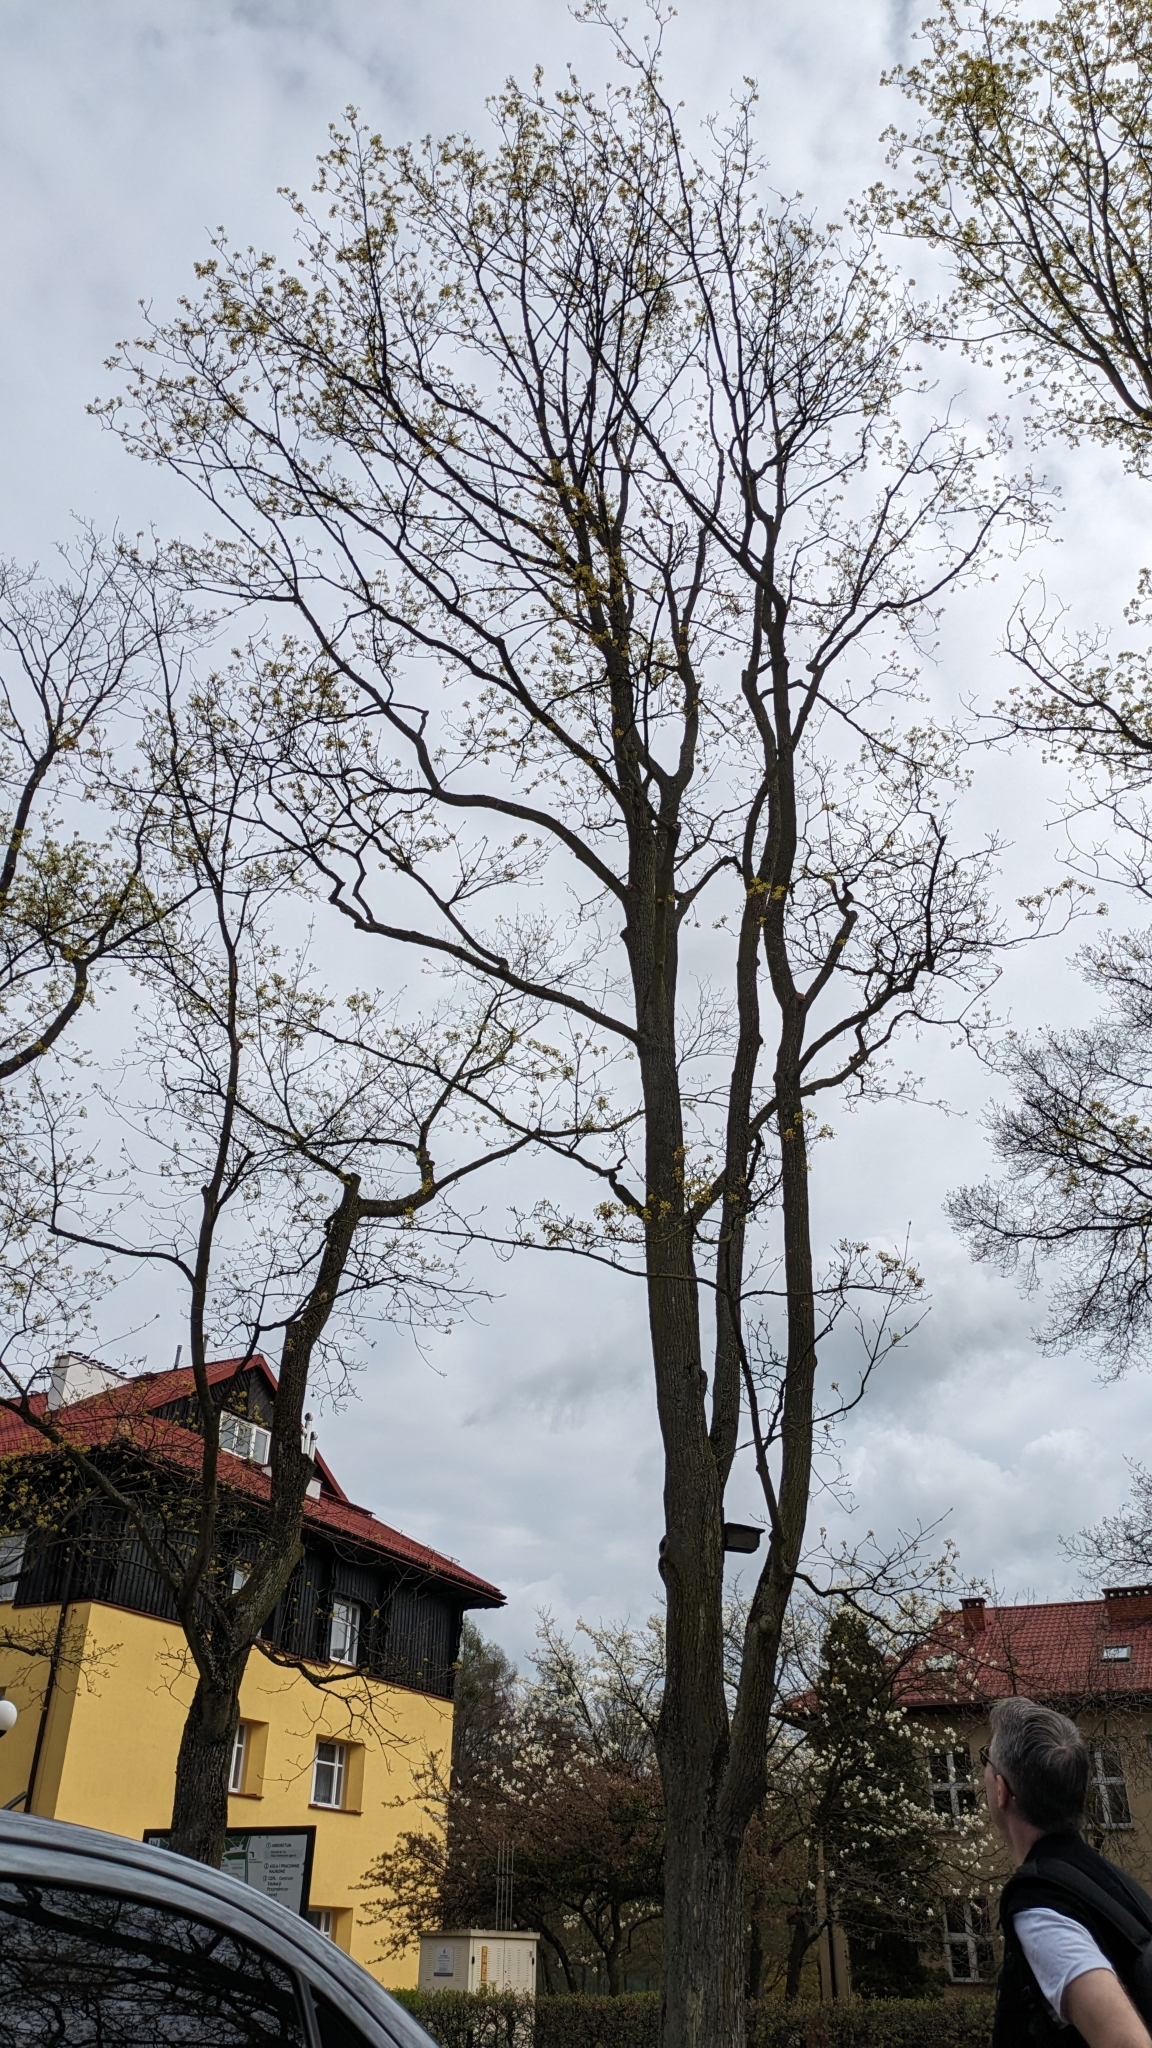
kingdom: Animalia
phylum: Chordata
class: Aves
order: Passeriformes
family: Sittidae
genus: Sitta
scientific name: Sitta europaea
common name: Eurasian nuthatch
